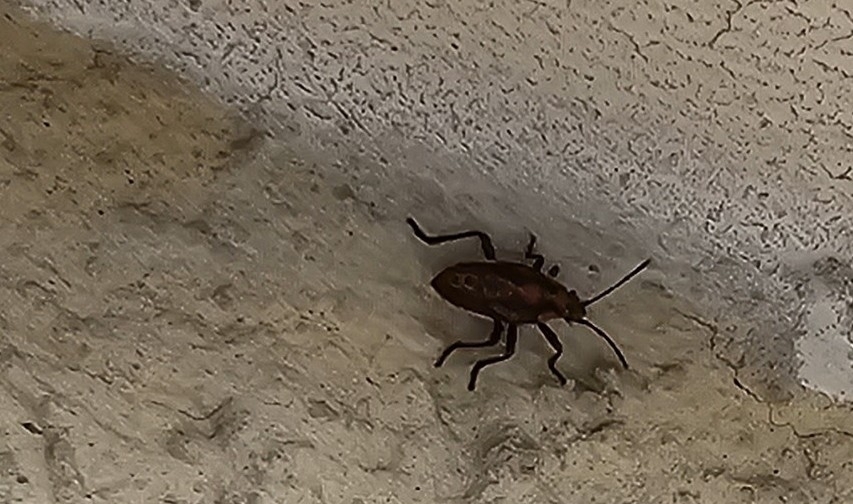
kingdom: Animalia
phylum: Arthropoda
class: Insecta
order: Hemiptera
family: Lygaeidae
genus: Spilostethus
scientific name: Spilostethus pandurus
